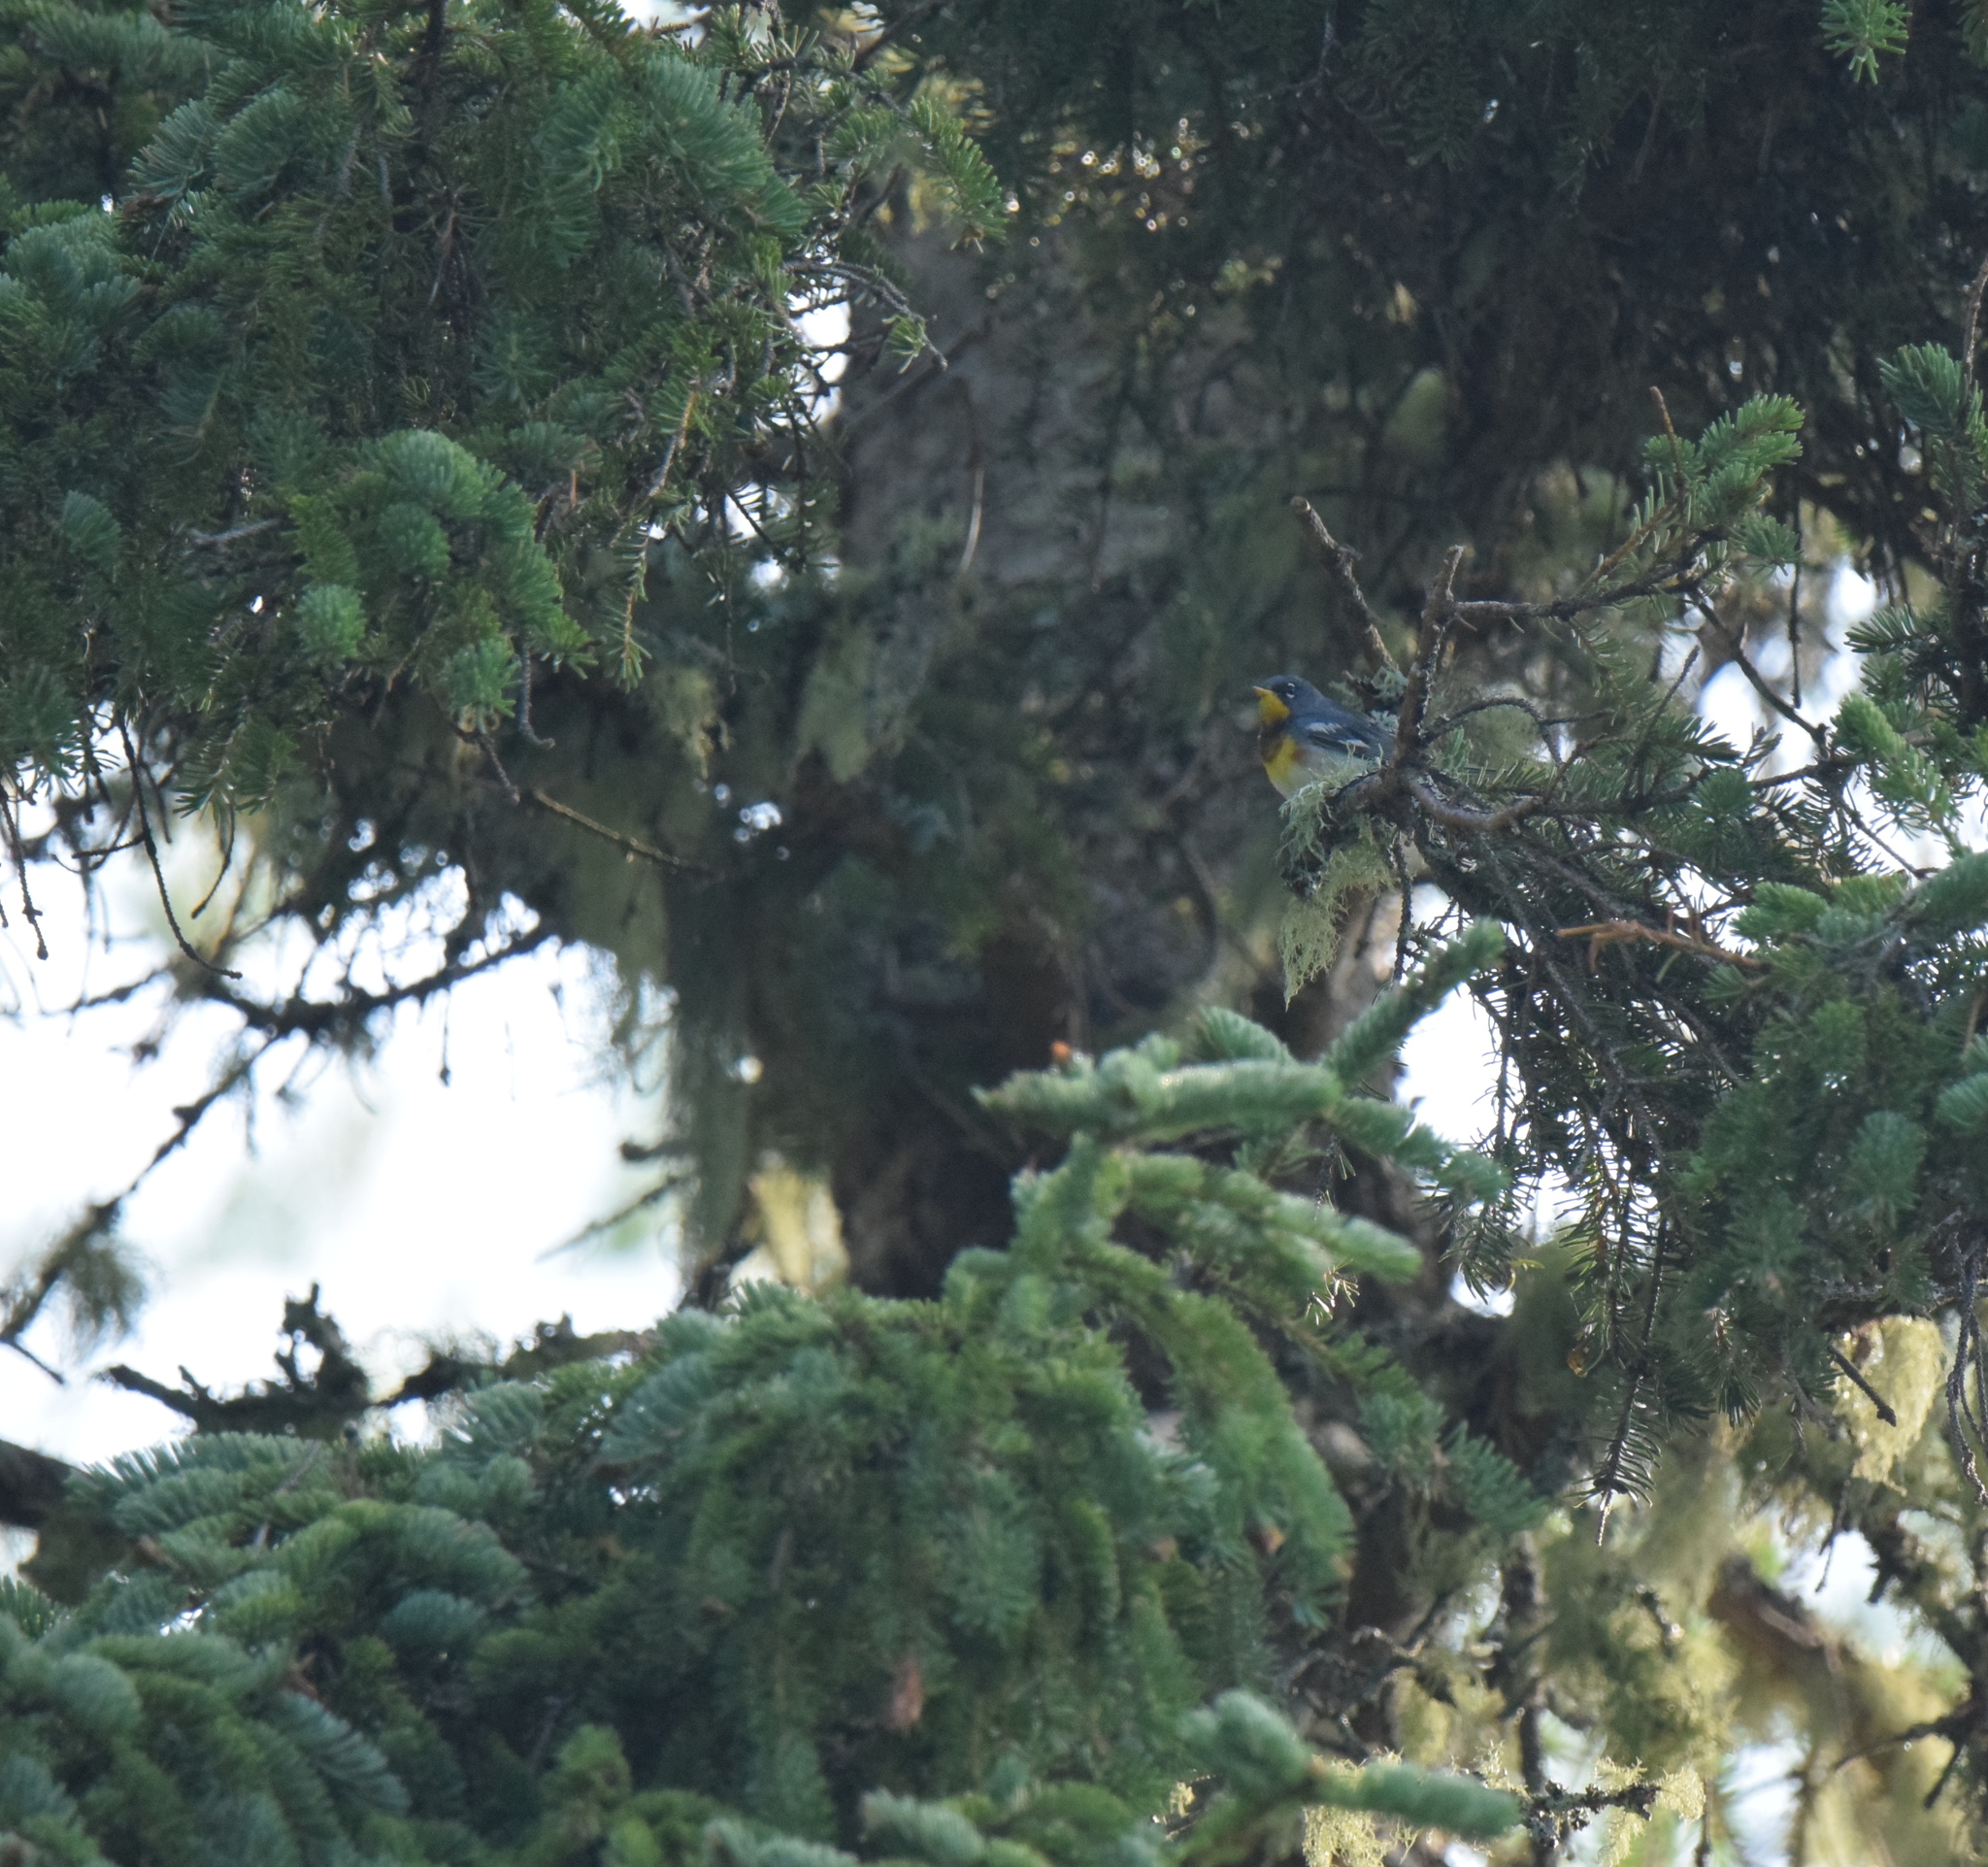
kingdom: Animalia
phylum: Chordata
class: Aves
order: Passeriformes
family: Parulidae
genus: Setophaga
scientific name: Setophaga americana
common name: Northern parula
